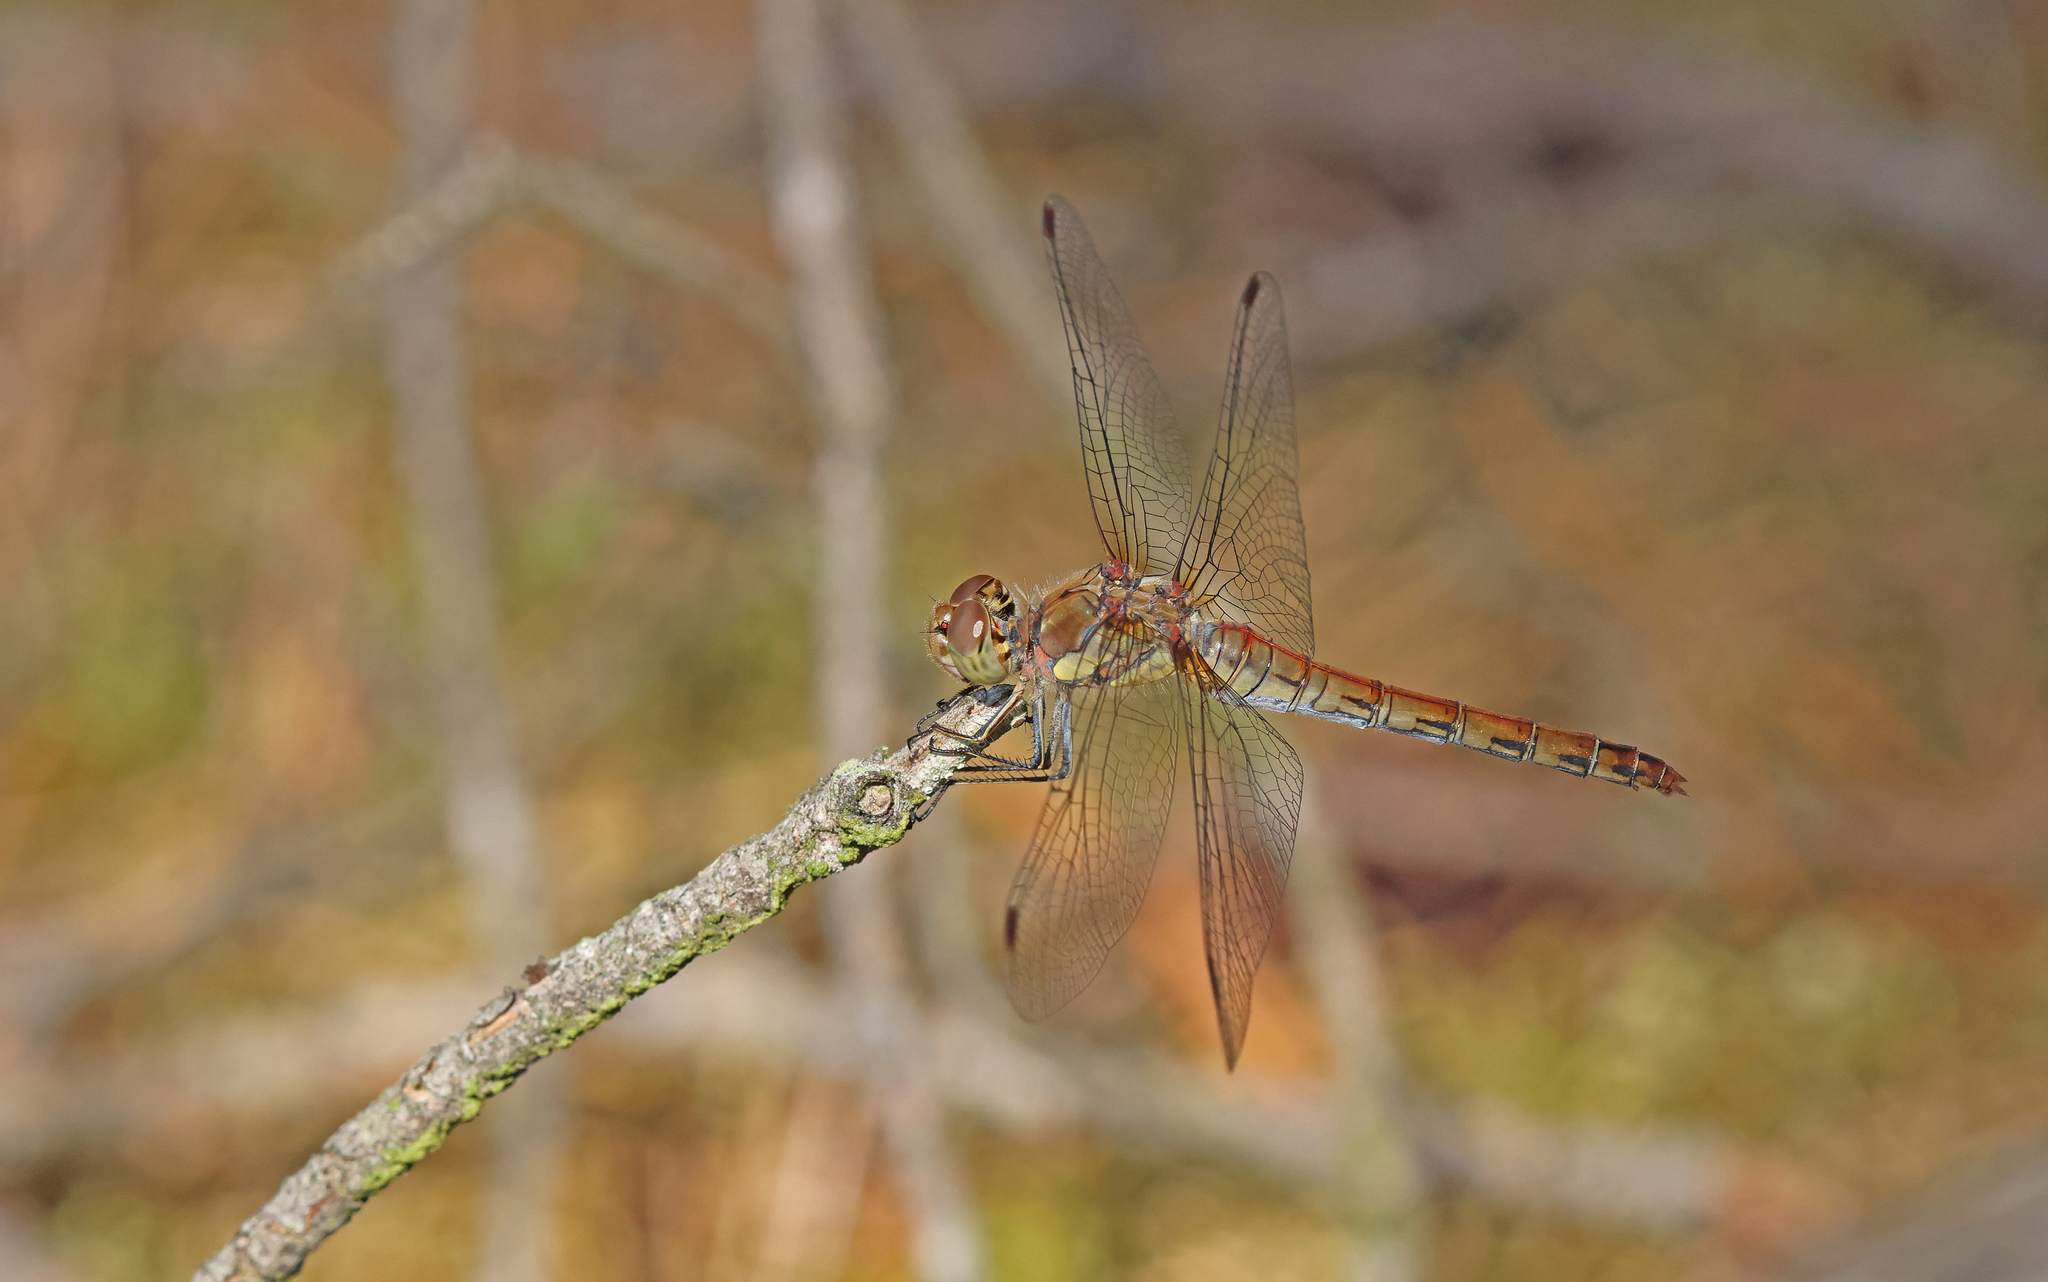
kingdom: Animalia
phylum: Arthropoda
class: Insecta
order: Odonata
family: Libellulidae
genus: Sympetrum
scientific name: Sympetrum striolatum
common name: Common darter
